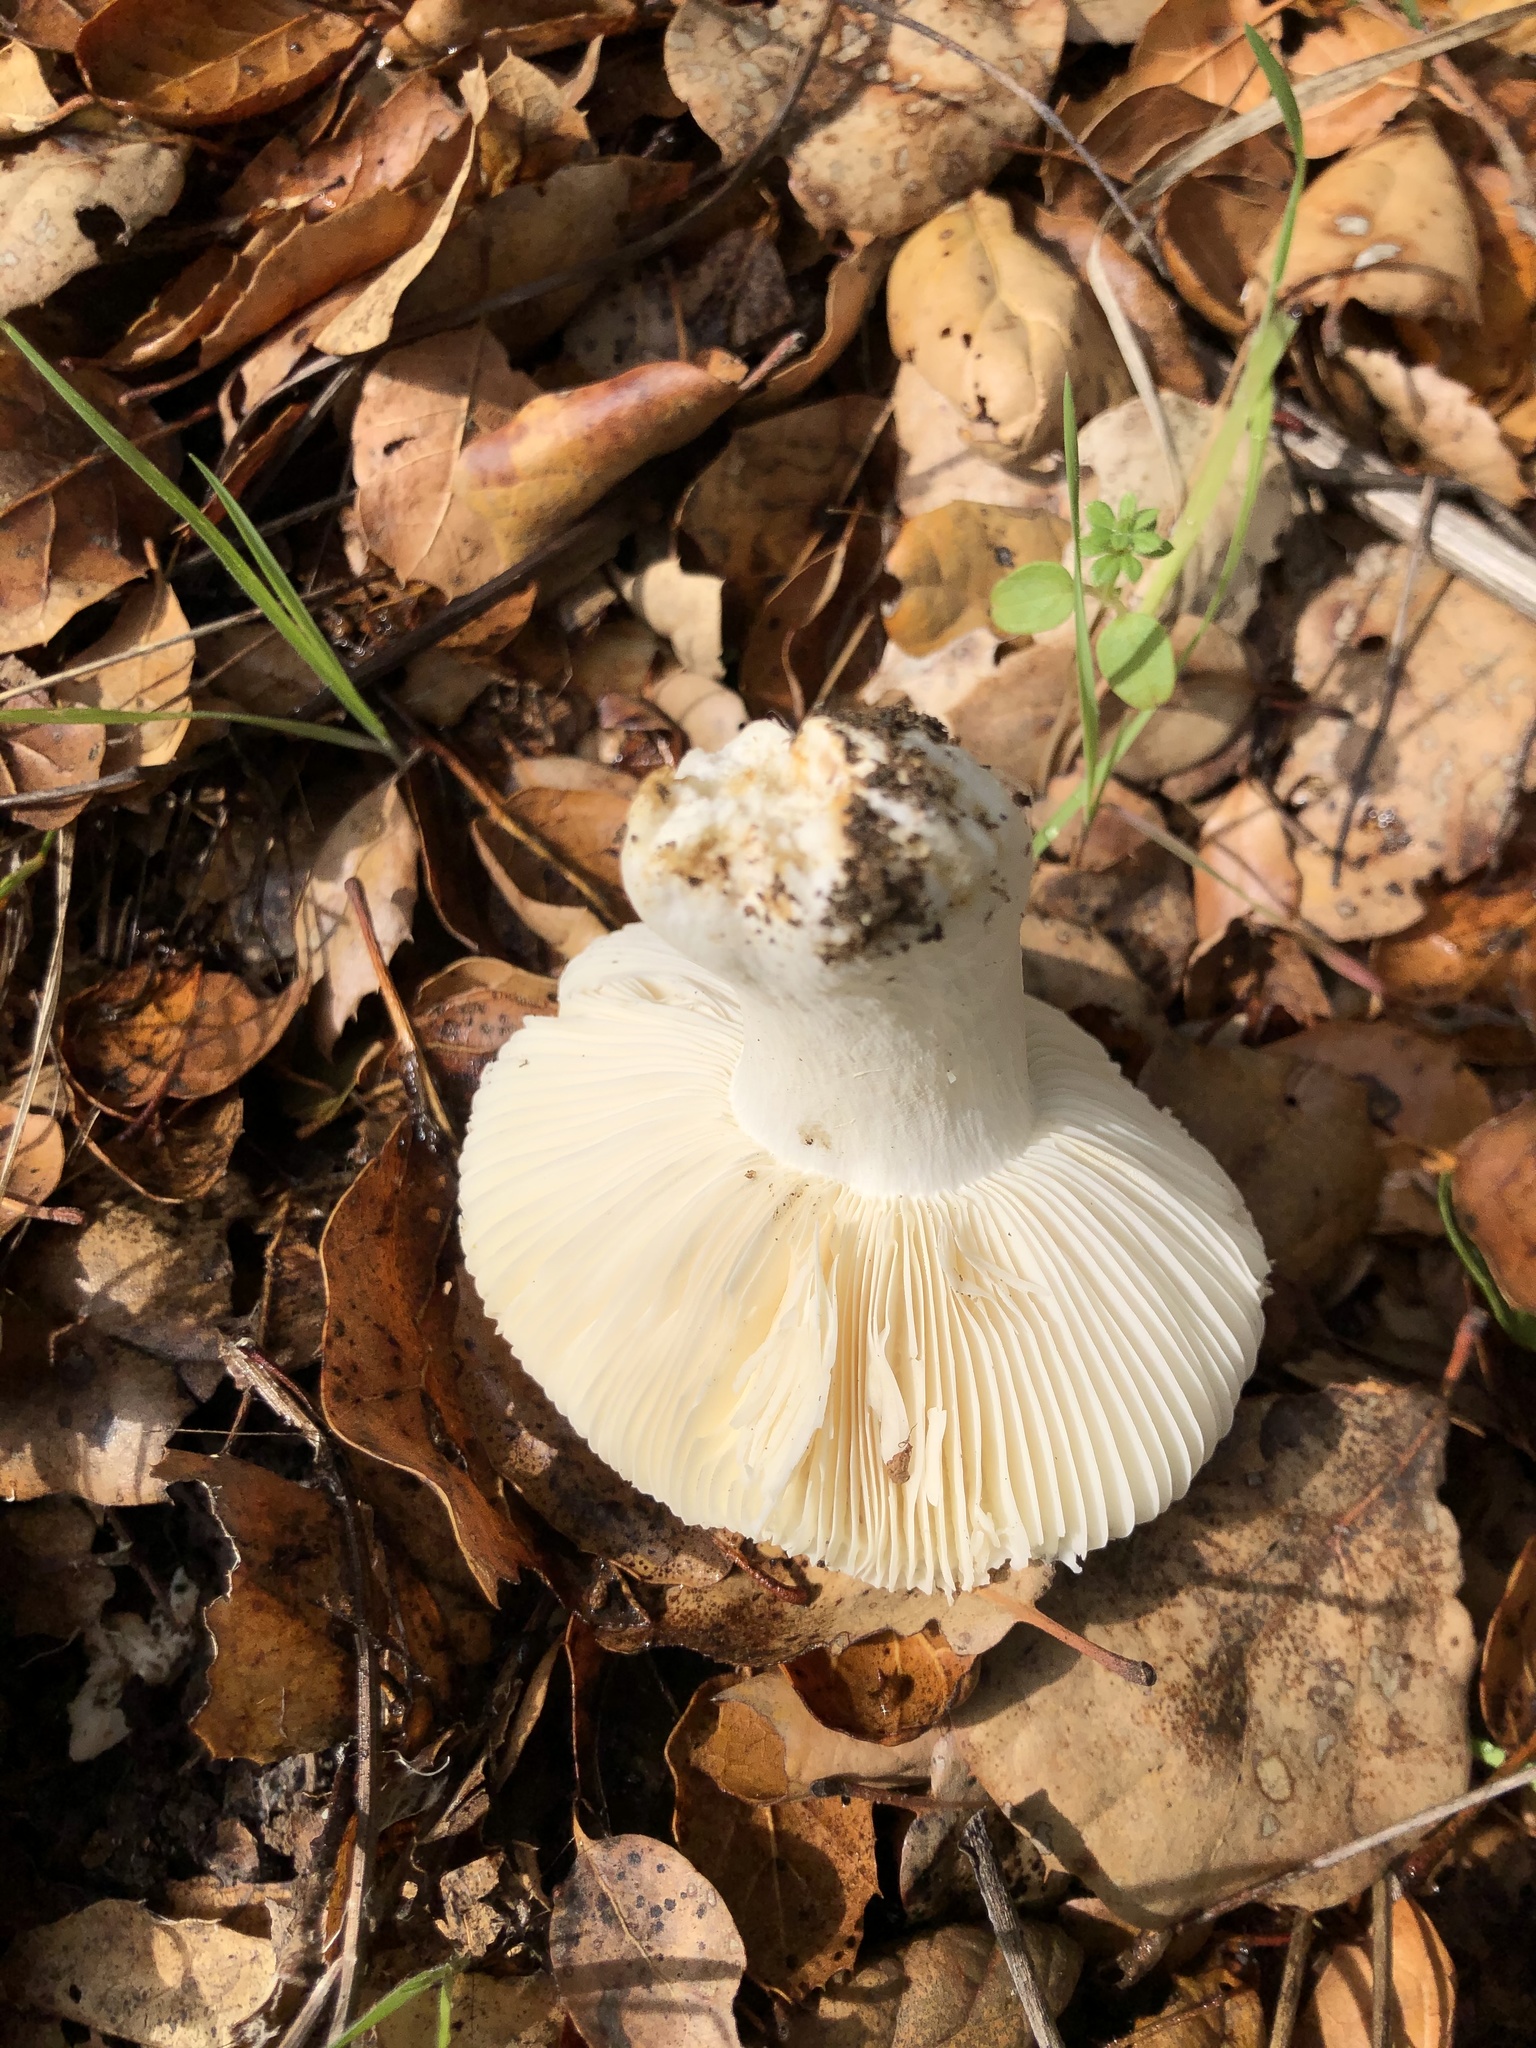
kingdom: Fungi
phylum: Basidiomycota
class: Agaricomycetes
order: Russulales
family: Russulaceae
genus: Russula
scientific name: Russula cerolens
